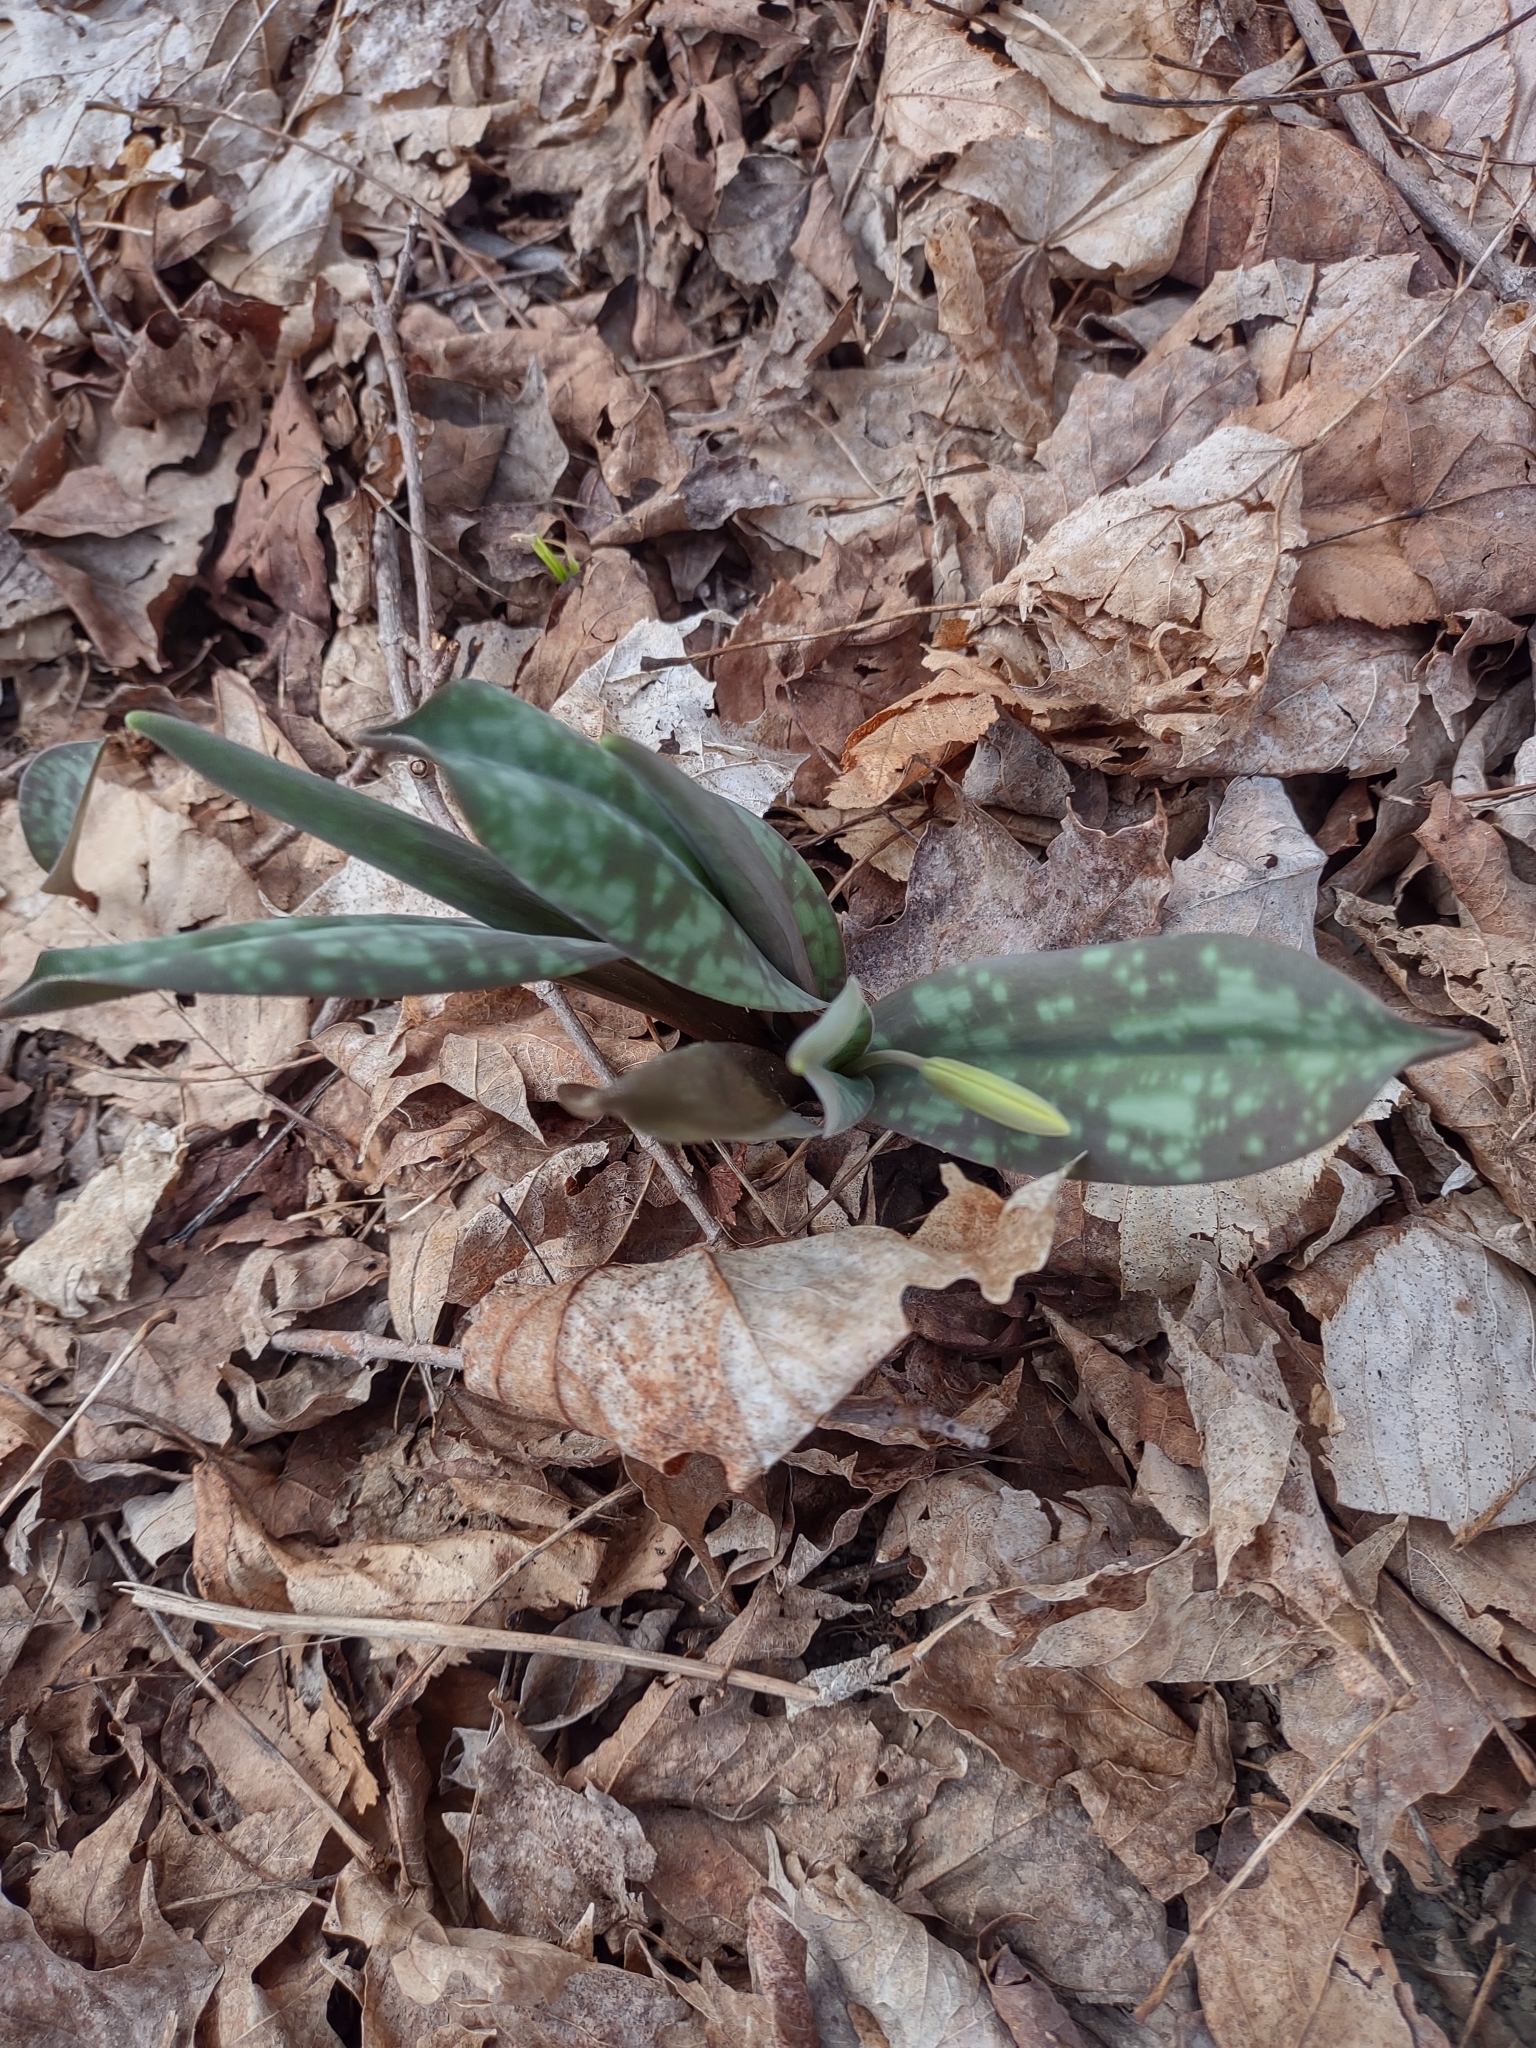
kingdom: Plantae
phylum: Tracheophyta
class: Liliopsida
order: Liliales
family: Liliaceae
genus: Erythronium
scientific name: Erythronium americanum
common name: Yellow adder's-tongue
